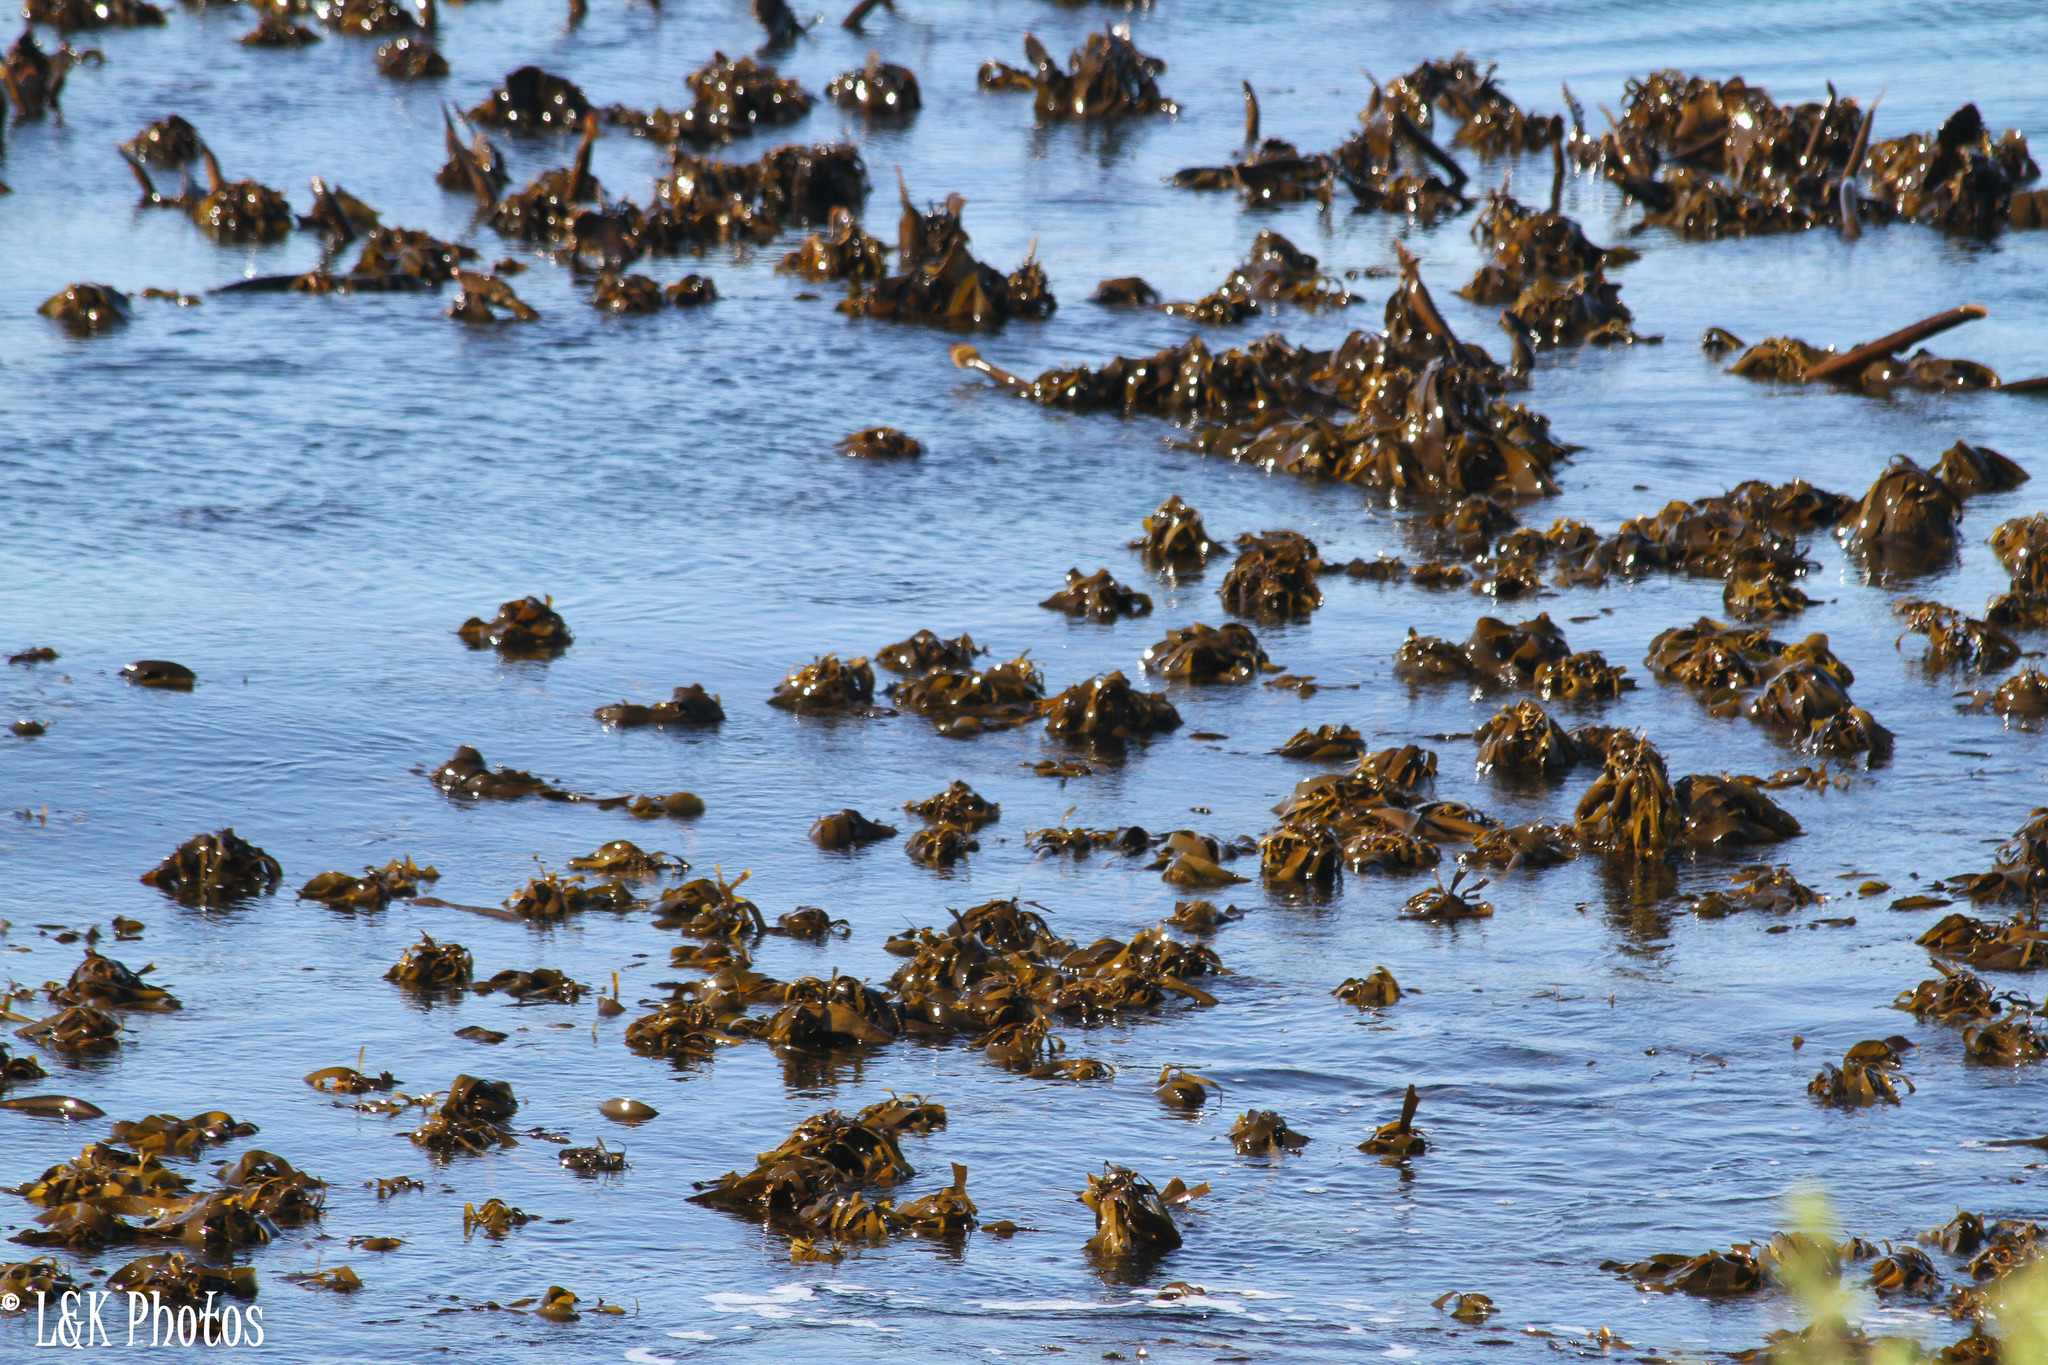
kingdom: Chromista
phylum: Ochrophyta
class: Phaeophyceae
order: Laminariales
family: Lessoniaceae
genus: Ecklonia
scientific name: Ecklonia
